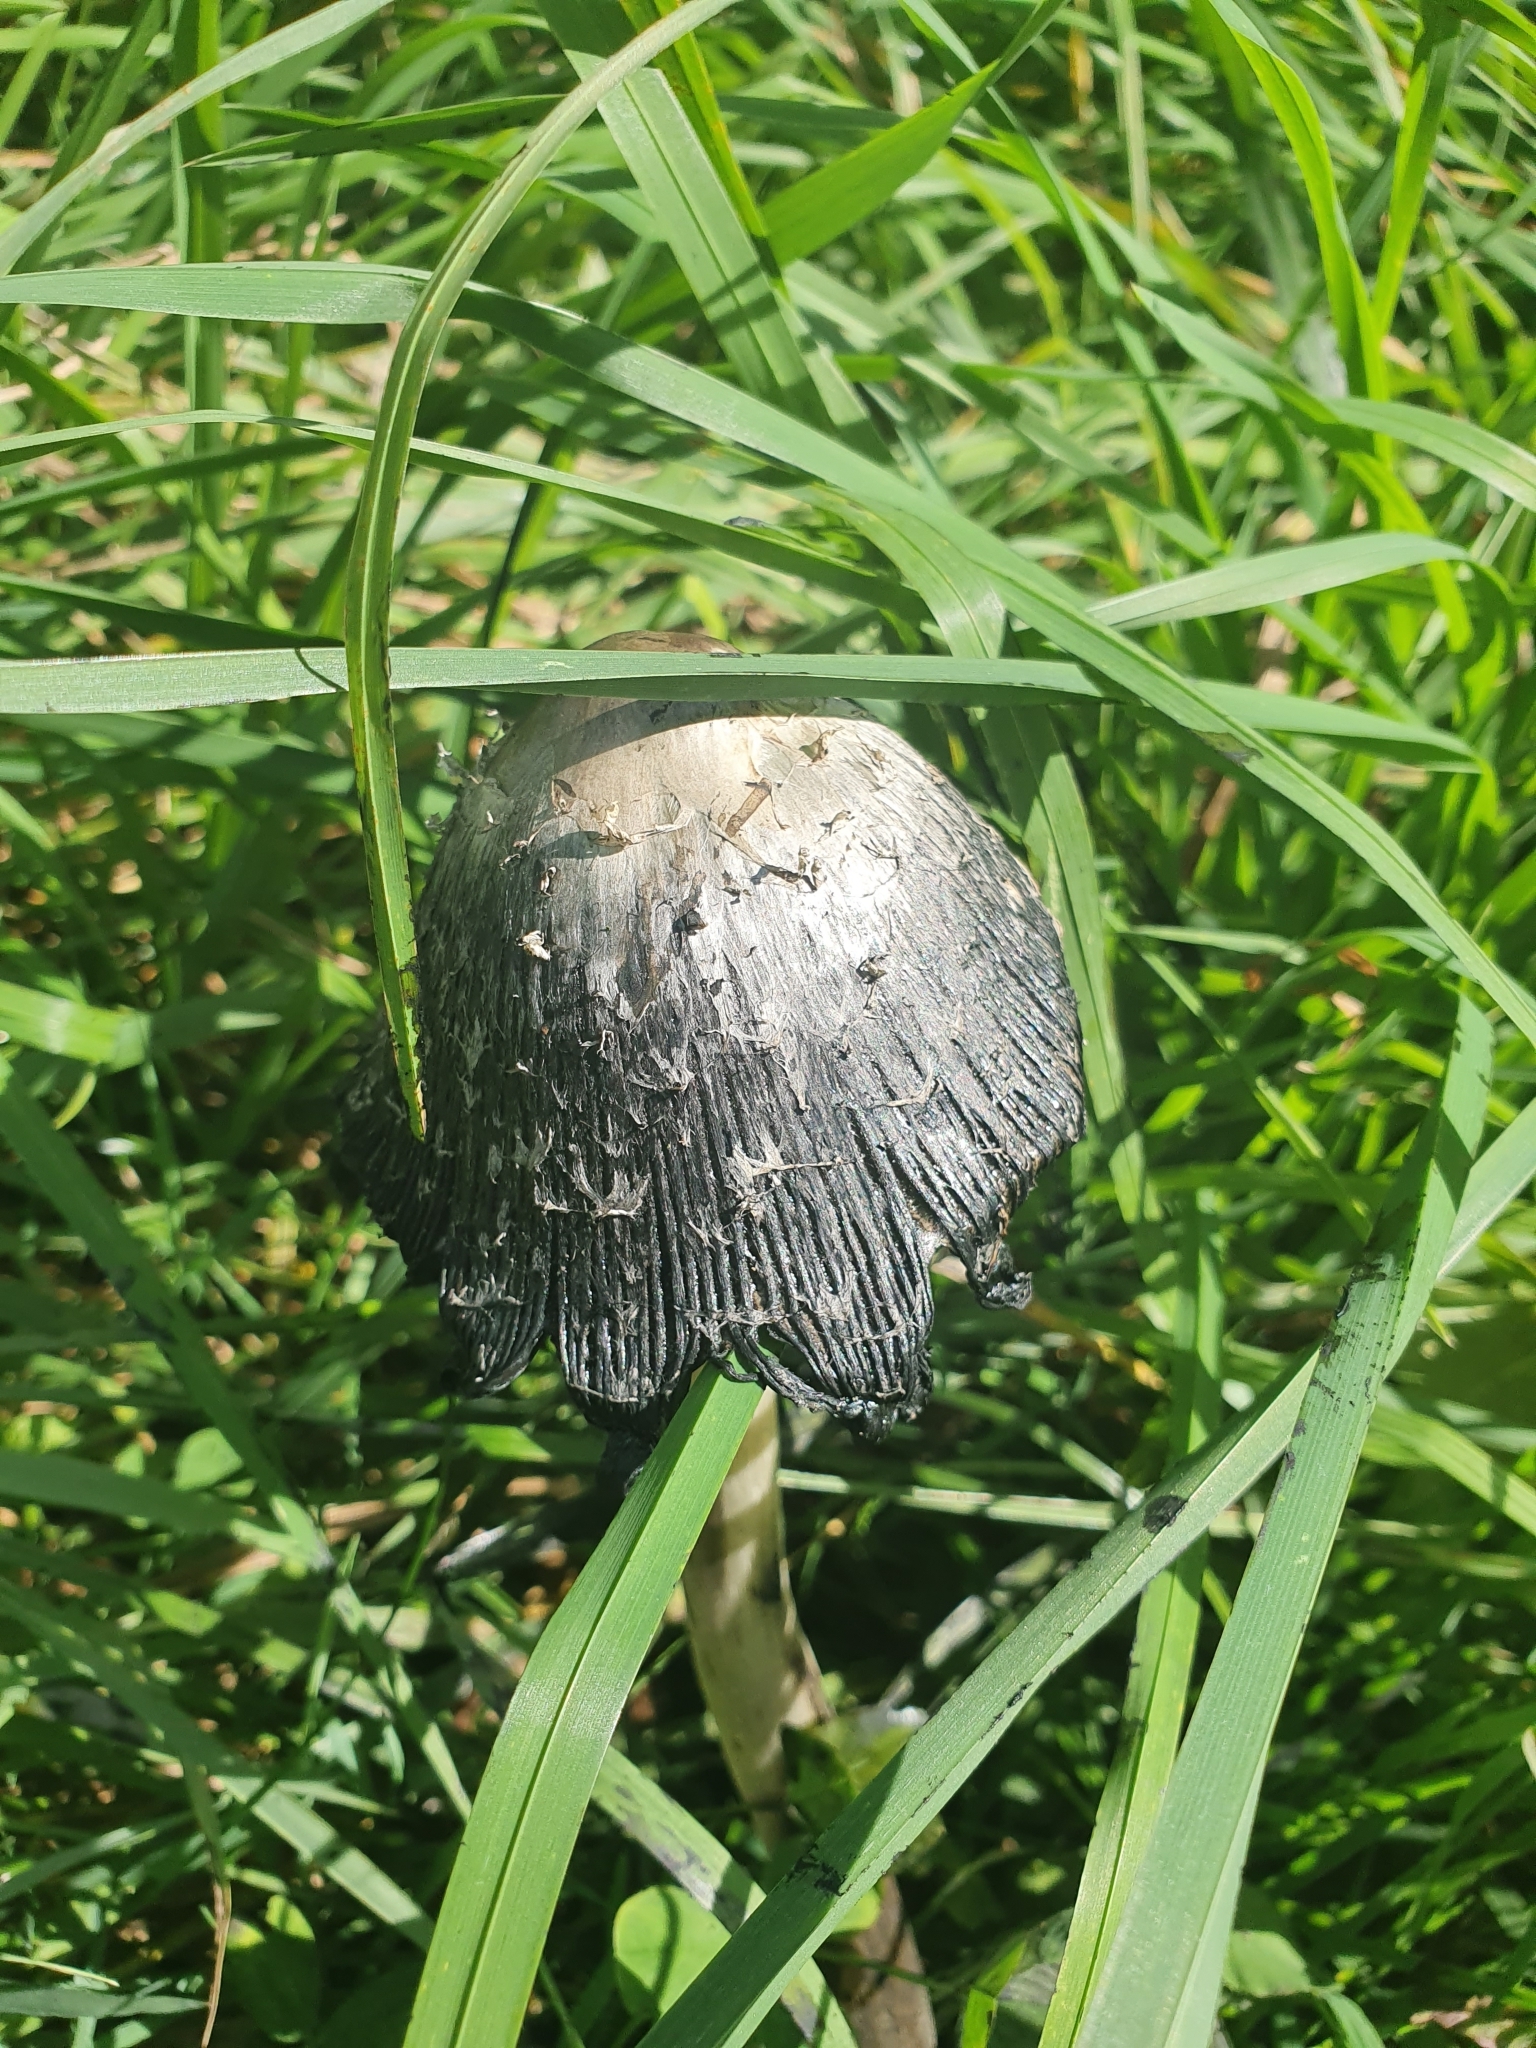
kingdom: Fungi
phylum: Basidiomycota
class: Agaricomycetes
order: Agaricales
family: Agaricaceae
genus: Coprinus
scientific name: Coprinus comatus
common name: Lawyer's wig
